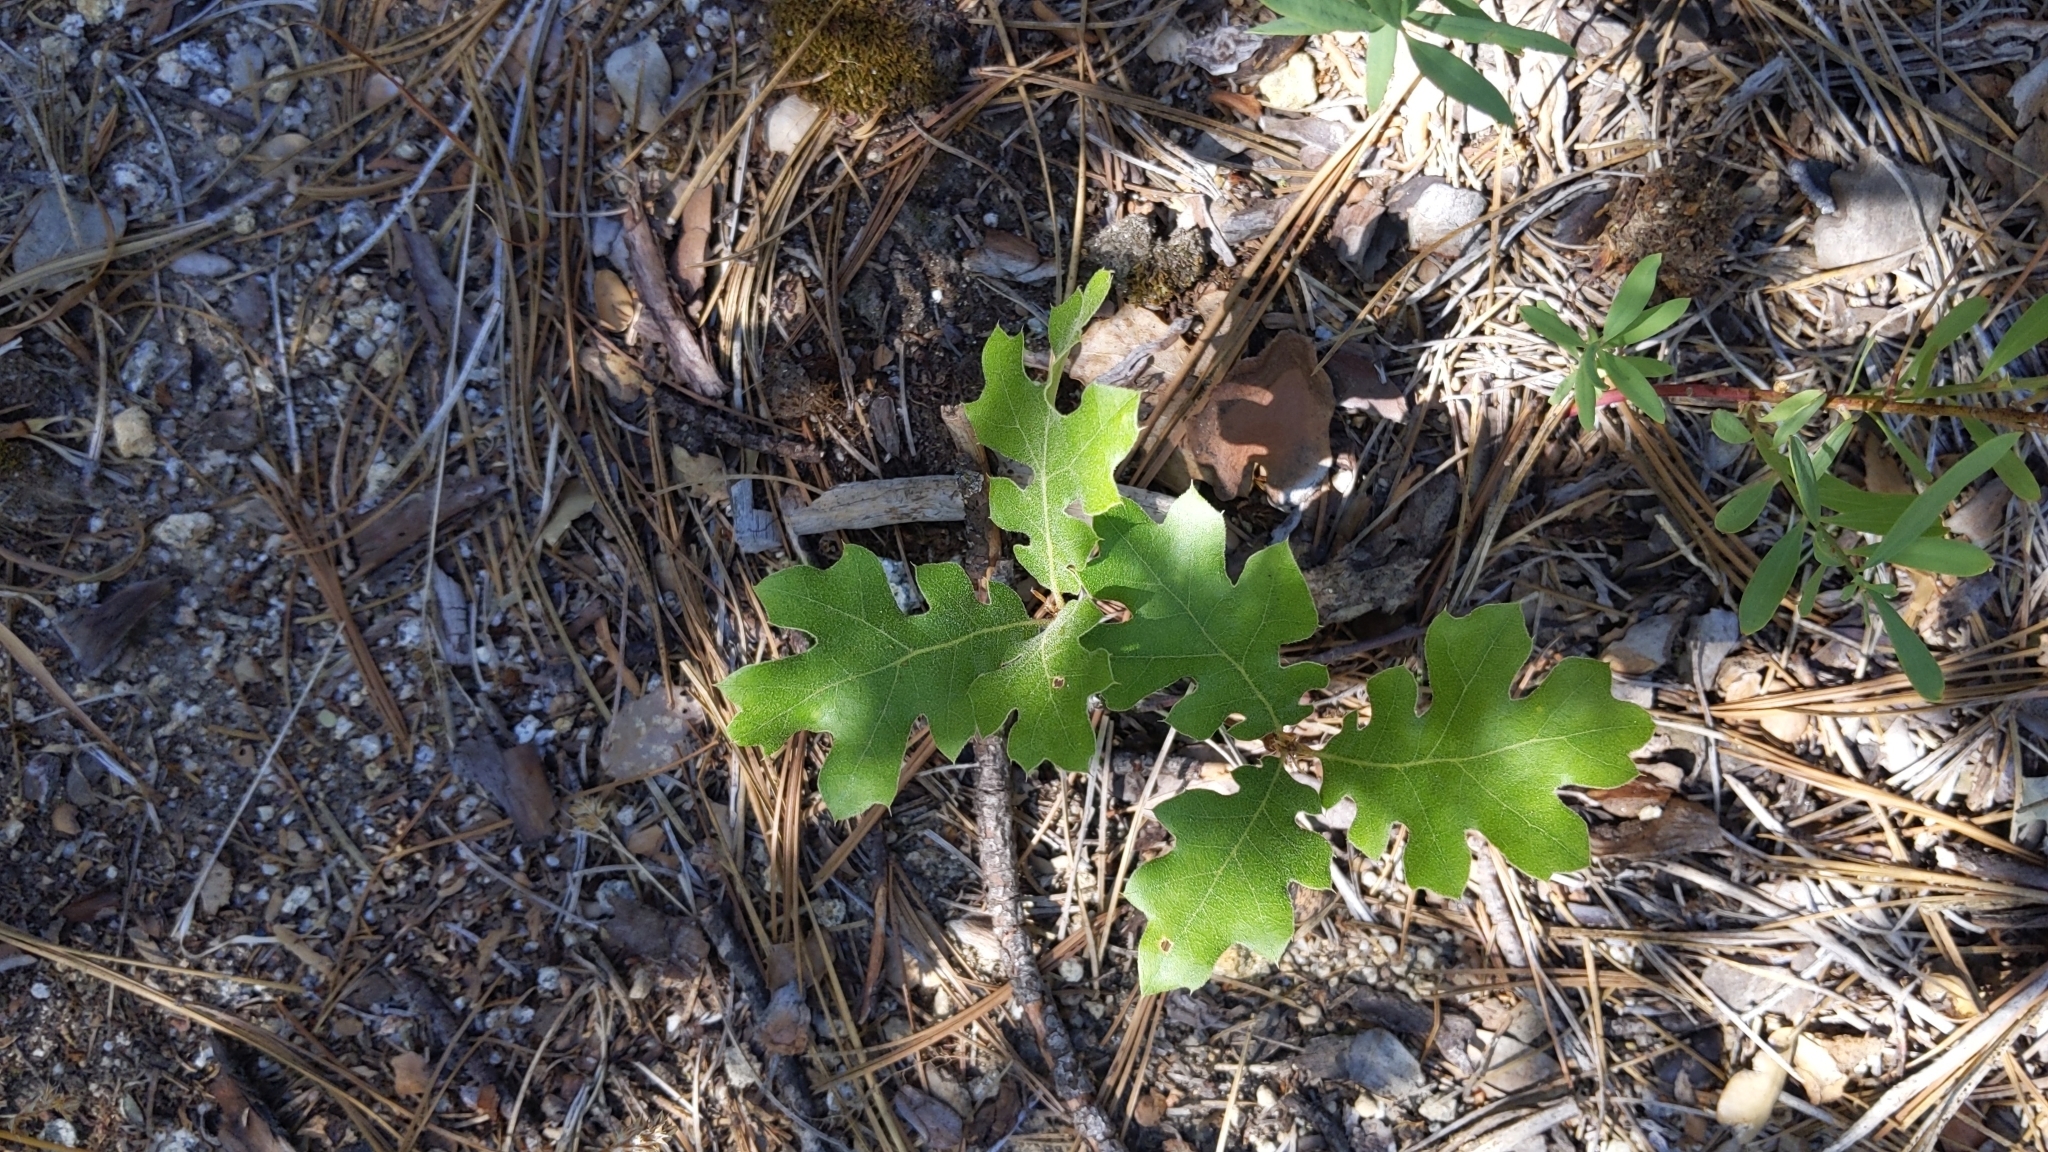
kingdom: Plantae
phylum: Tracheophyta
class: Magnoliopsida
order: Fagales
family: Fagaceae
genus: Quercus
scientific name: Quercus kelloggii
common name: California black oak
